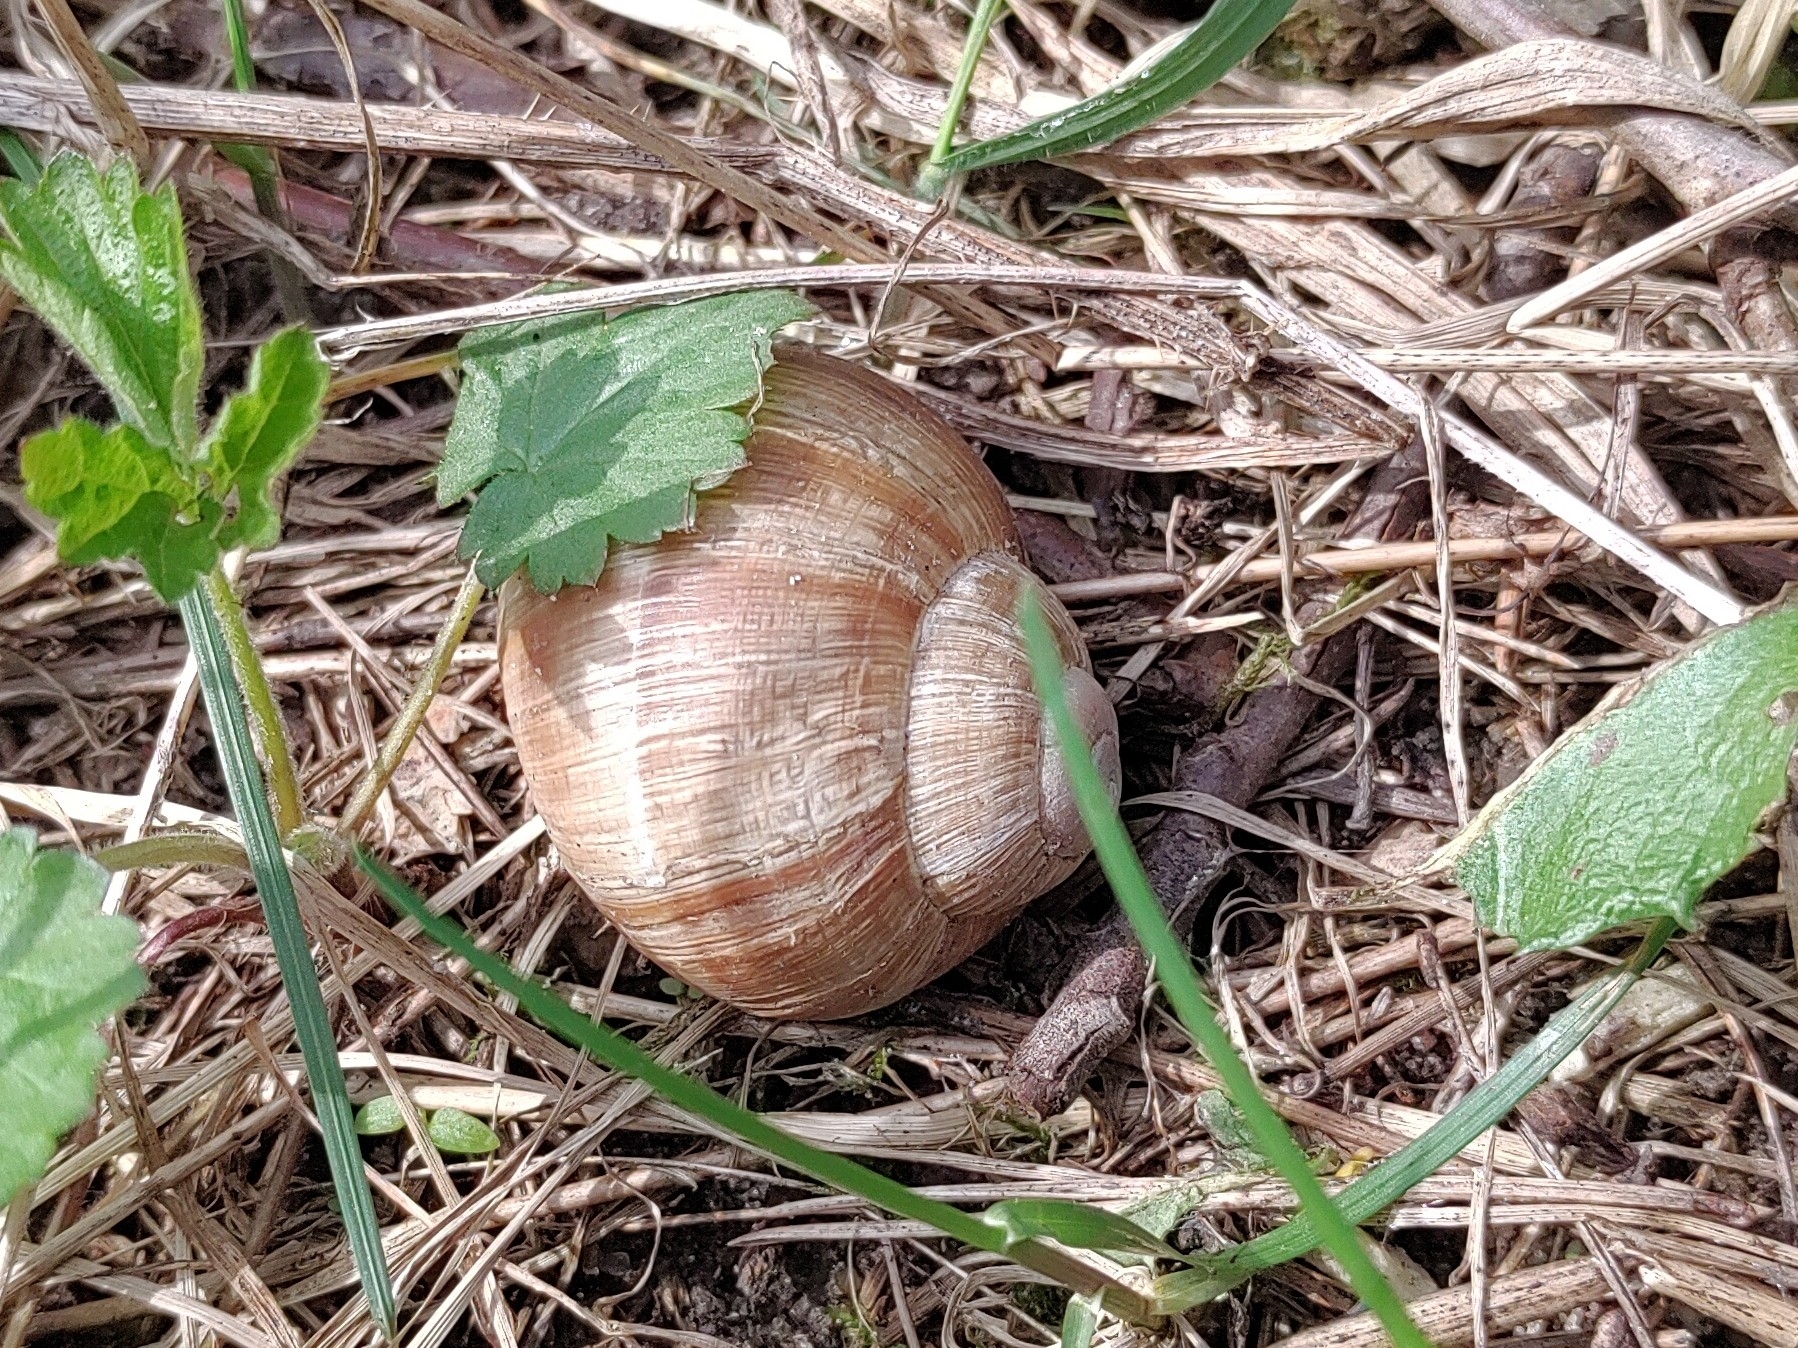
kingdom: Animalia
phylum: Mollusca
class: Gastropoda
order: Stylommatophora
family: Helicidae
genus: Helix
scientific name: Helix pomatia
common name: Roman snail
